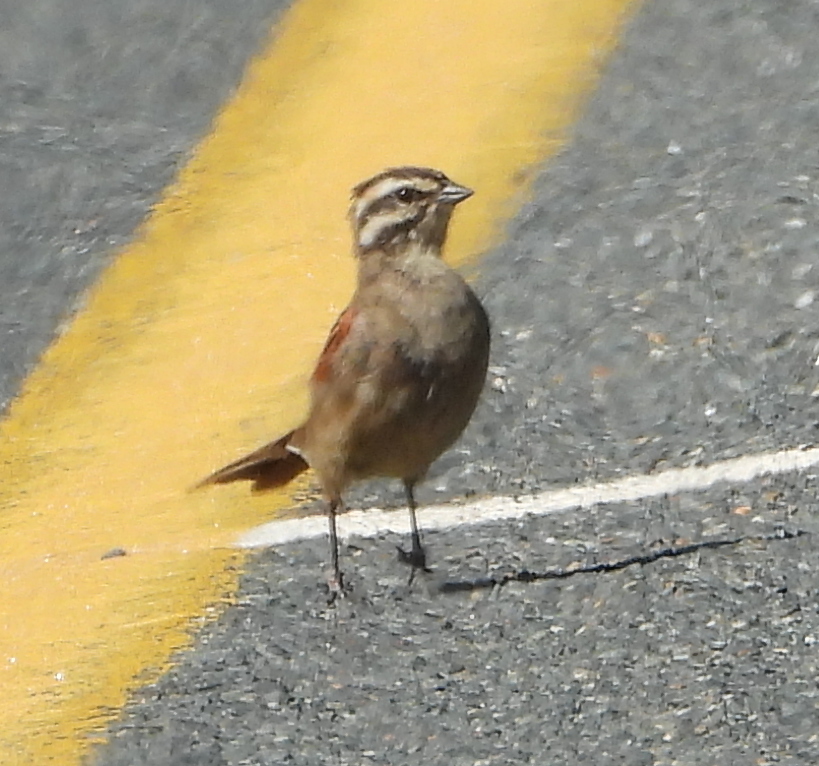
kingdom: Animalia
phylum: Chordata
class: Aves
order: Passeriformes
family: Emberizidae
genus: Emberiza
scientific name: Emberiza capensis
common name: Cape bunting
